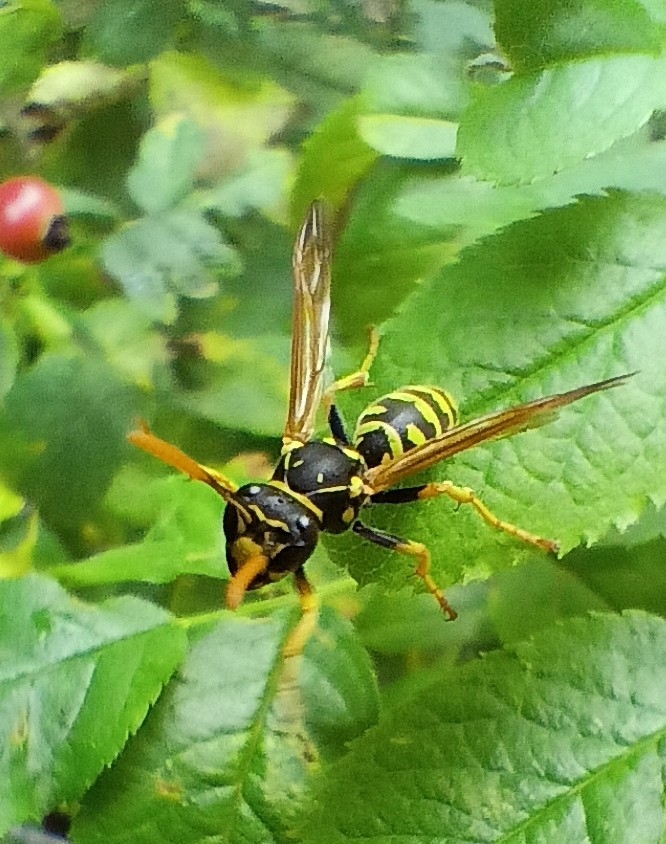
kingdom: Animalia
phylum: Arthropoda
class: Insecta
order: Hymenoptera
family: Eumenidae
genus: Polistes
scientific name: Polistes dominula
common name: Paper wasp
